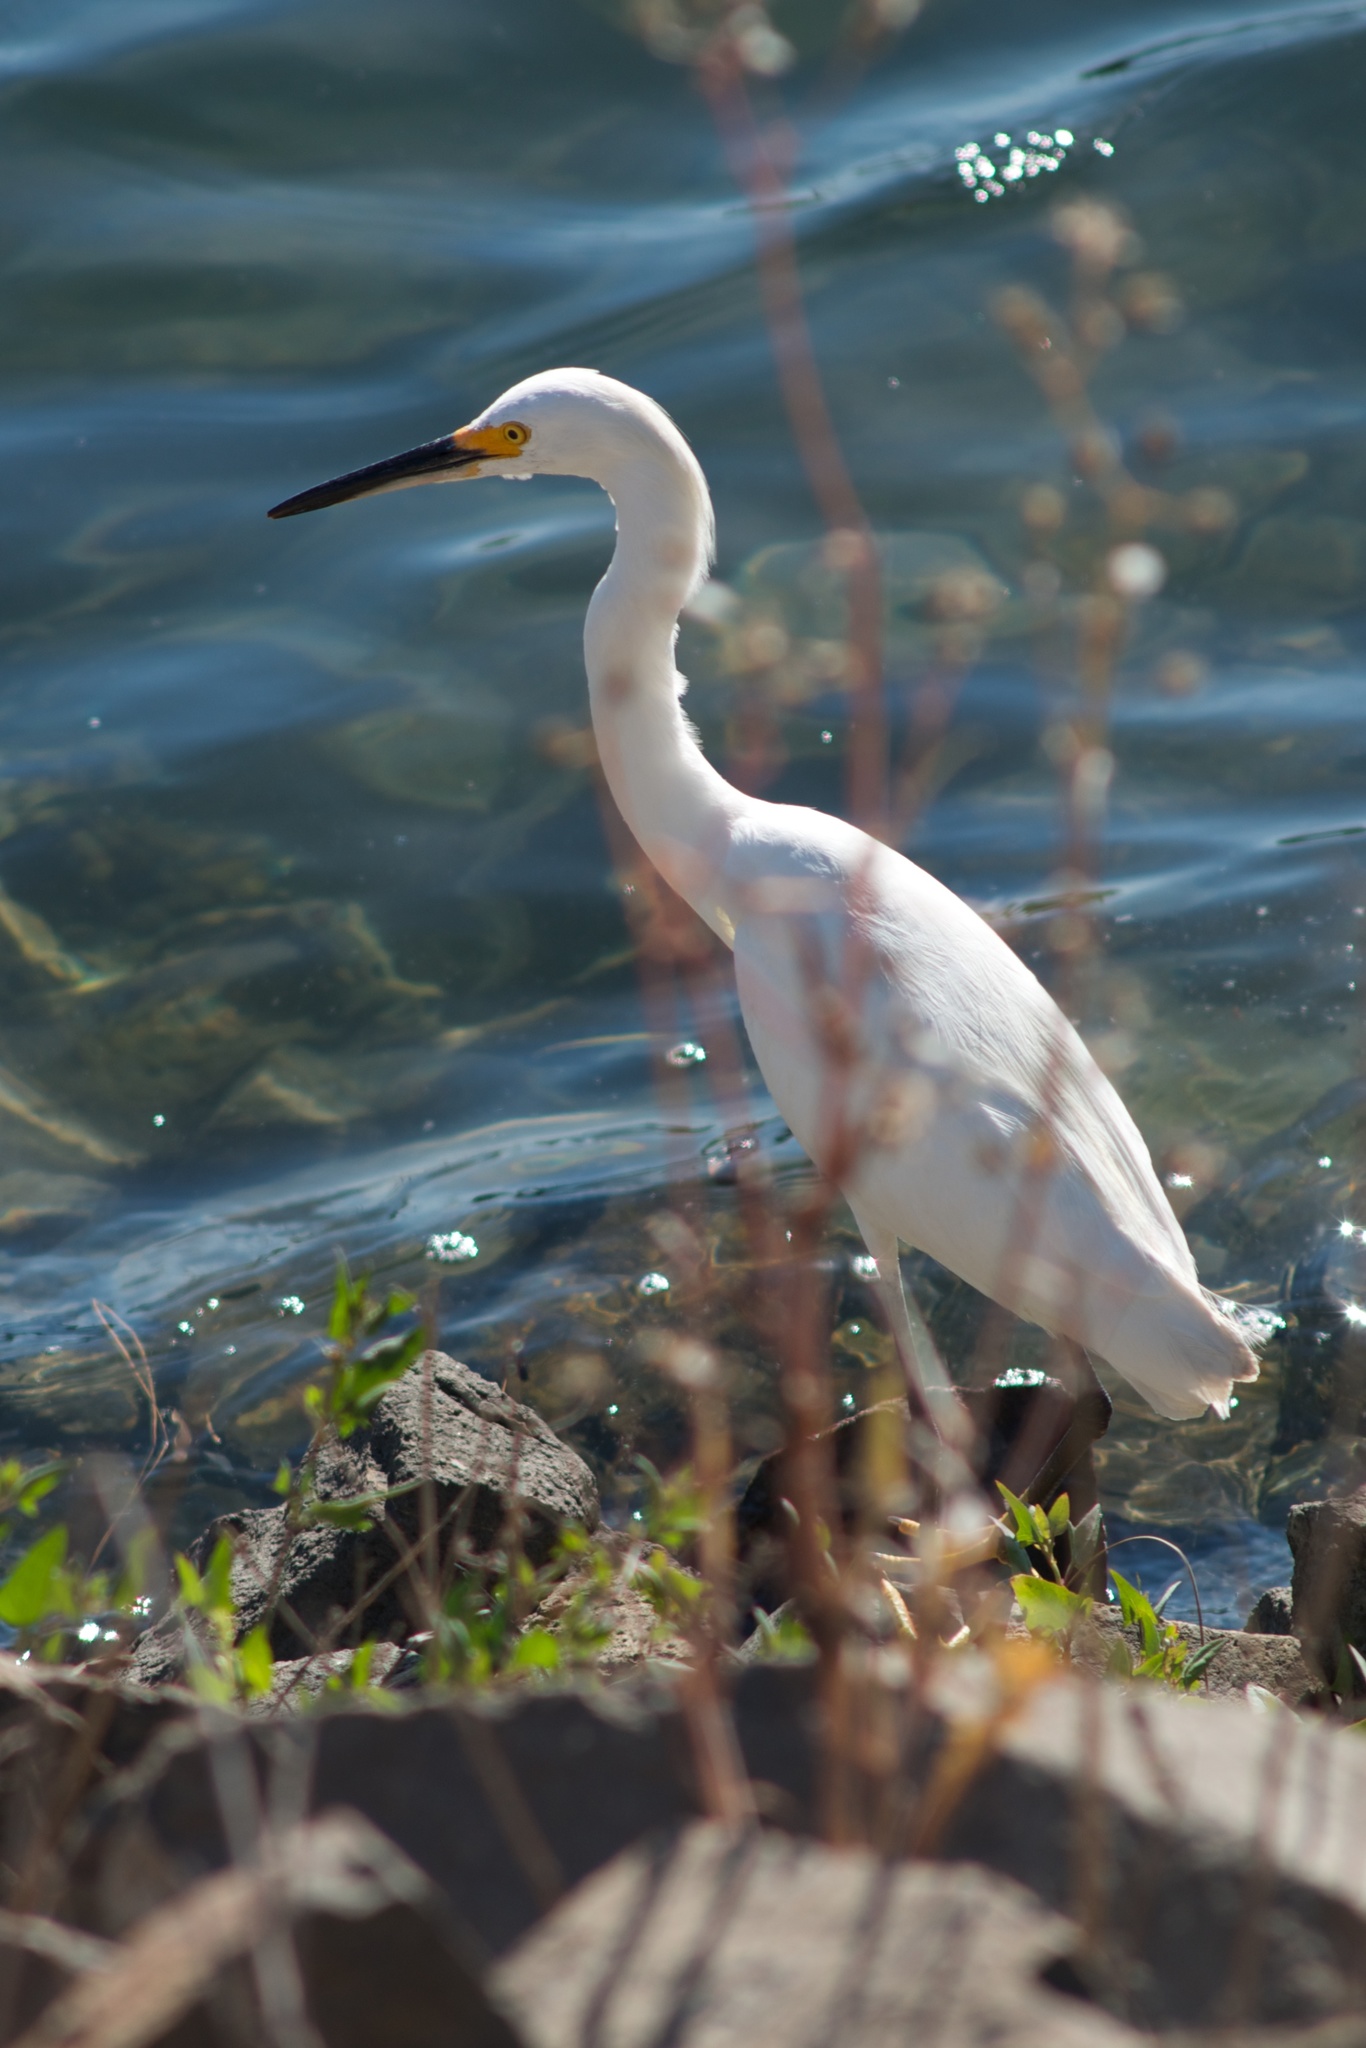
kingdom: Animalia
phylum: Chordata
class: Aves
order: Pelecaniformes
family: Ardeidae
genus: Egretta
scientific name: Egretta thula
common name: Snowy egret
